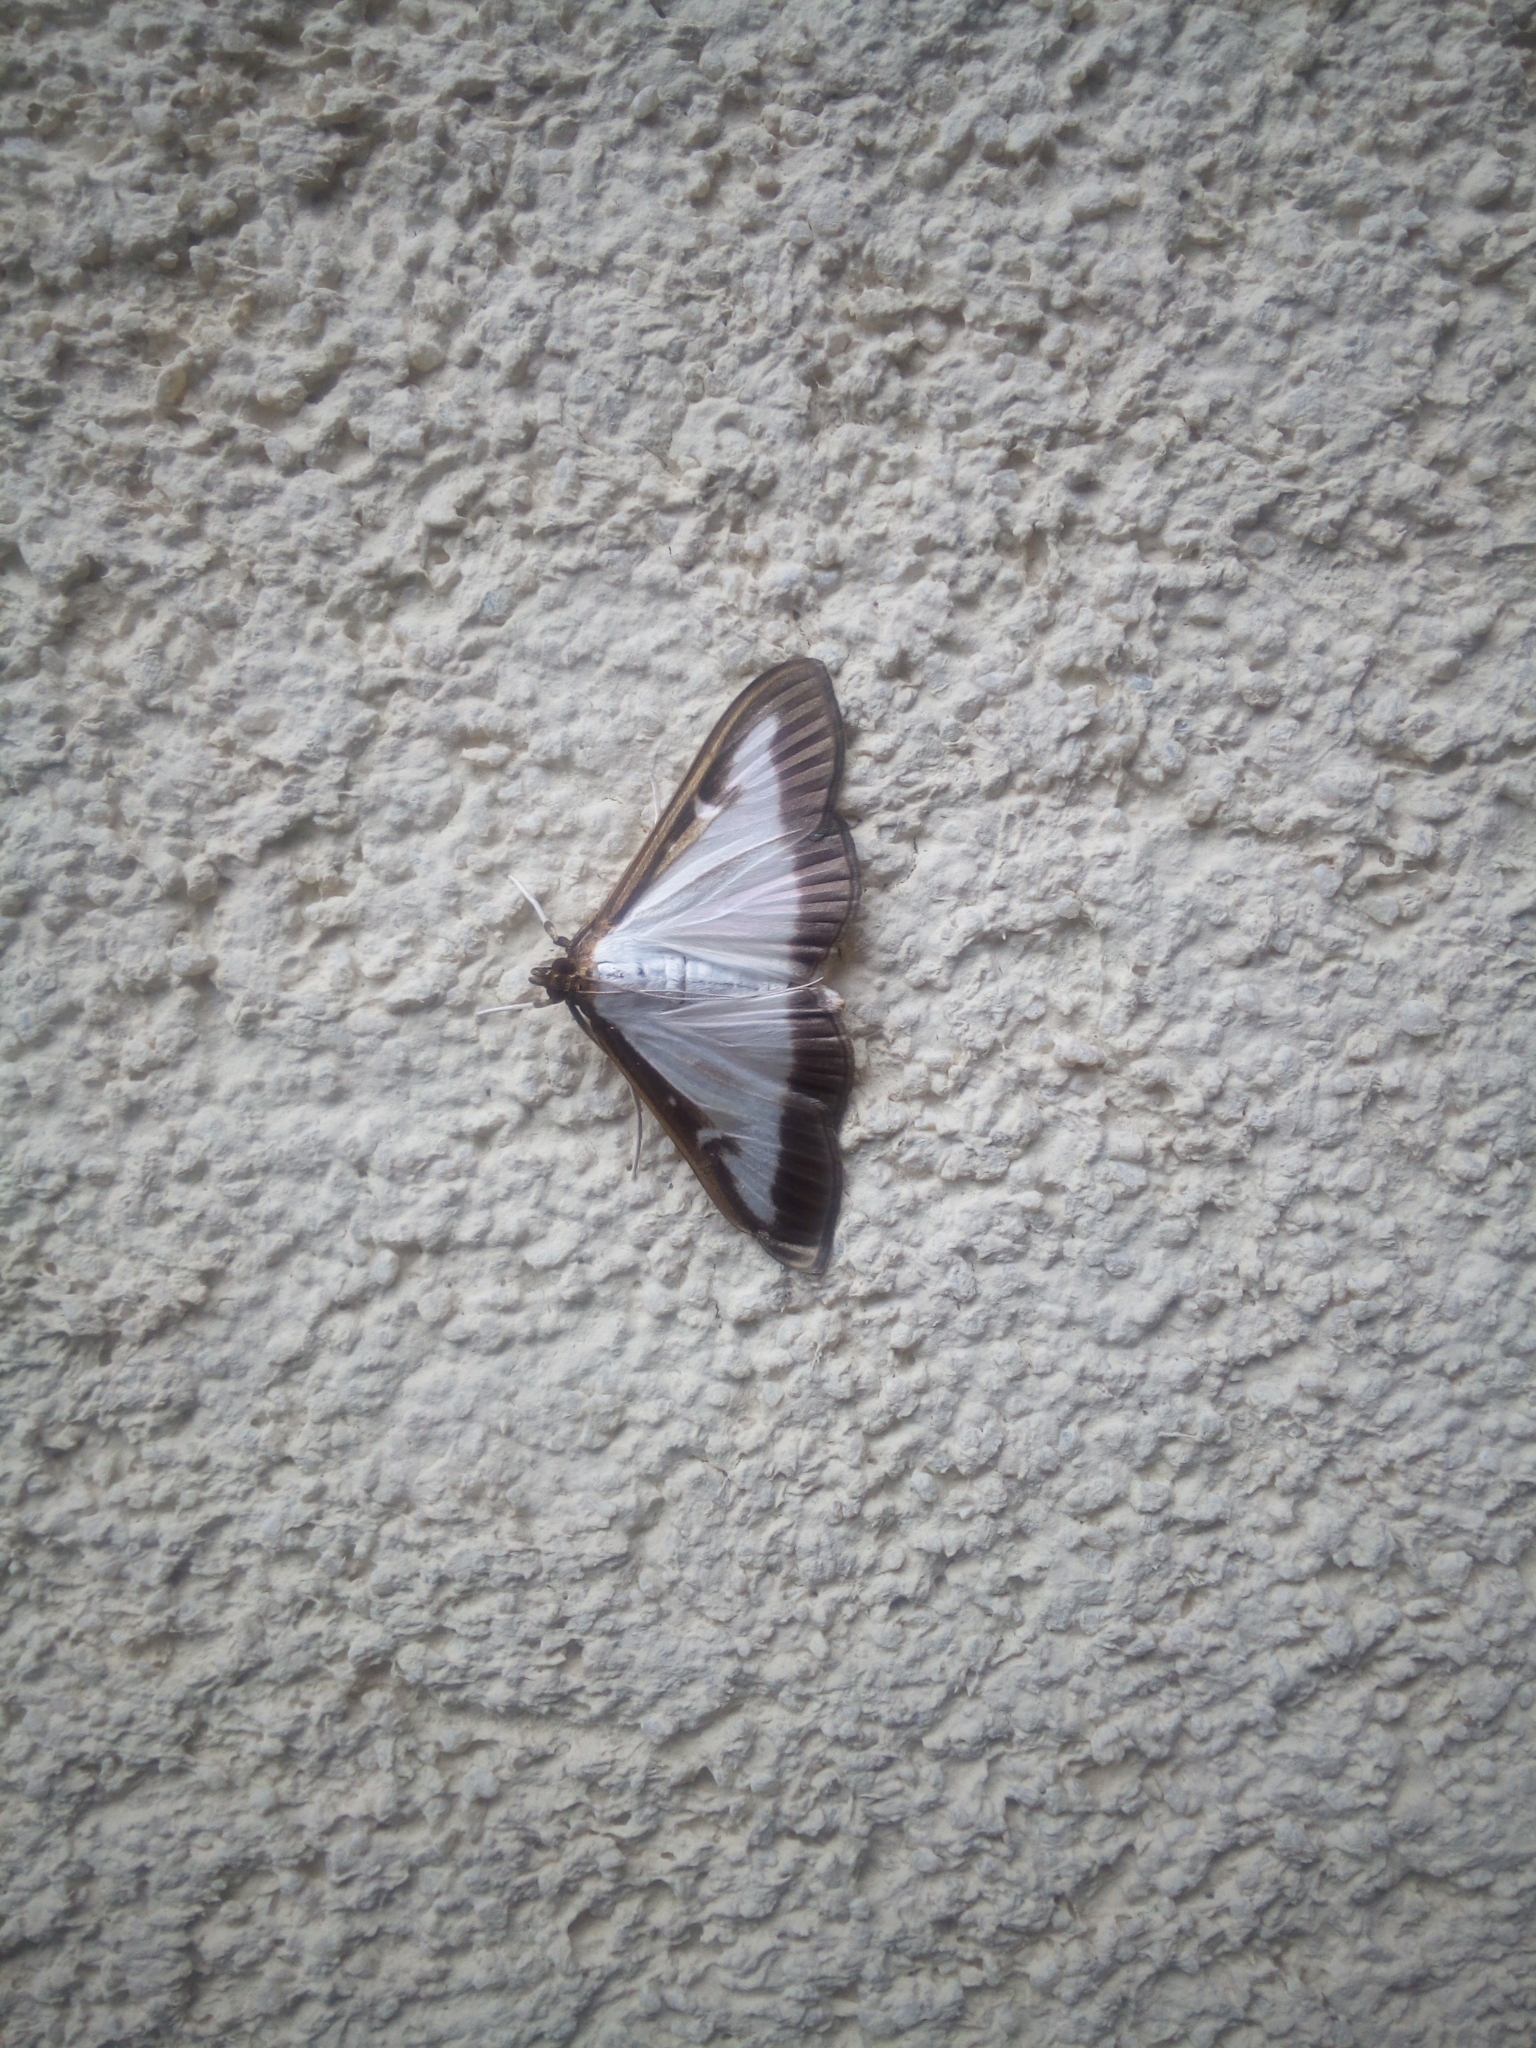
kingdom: Animalia
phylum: Arthropoda
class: Insecta
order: Lepidoptera
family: Crambidae
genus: Cydalima
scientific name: Cydalima perspectalis
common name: Box tree moth
